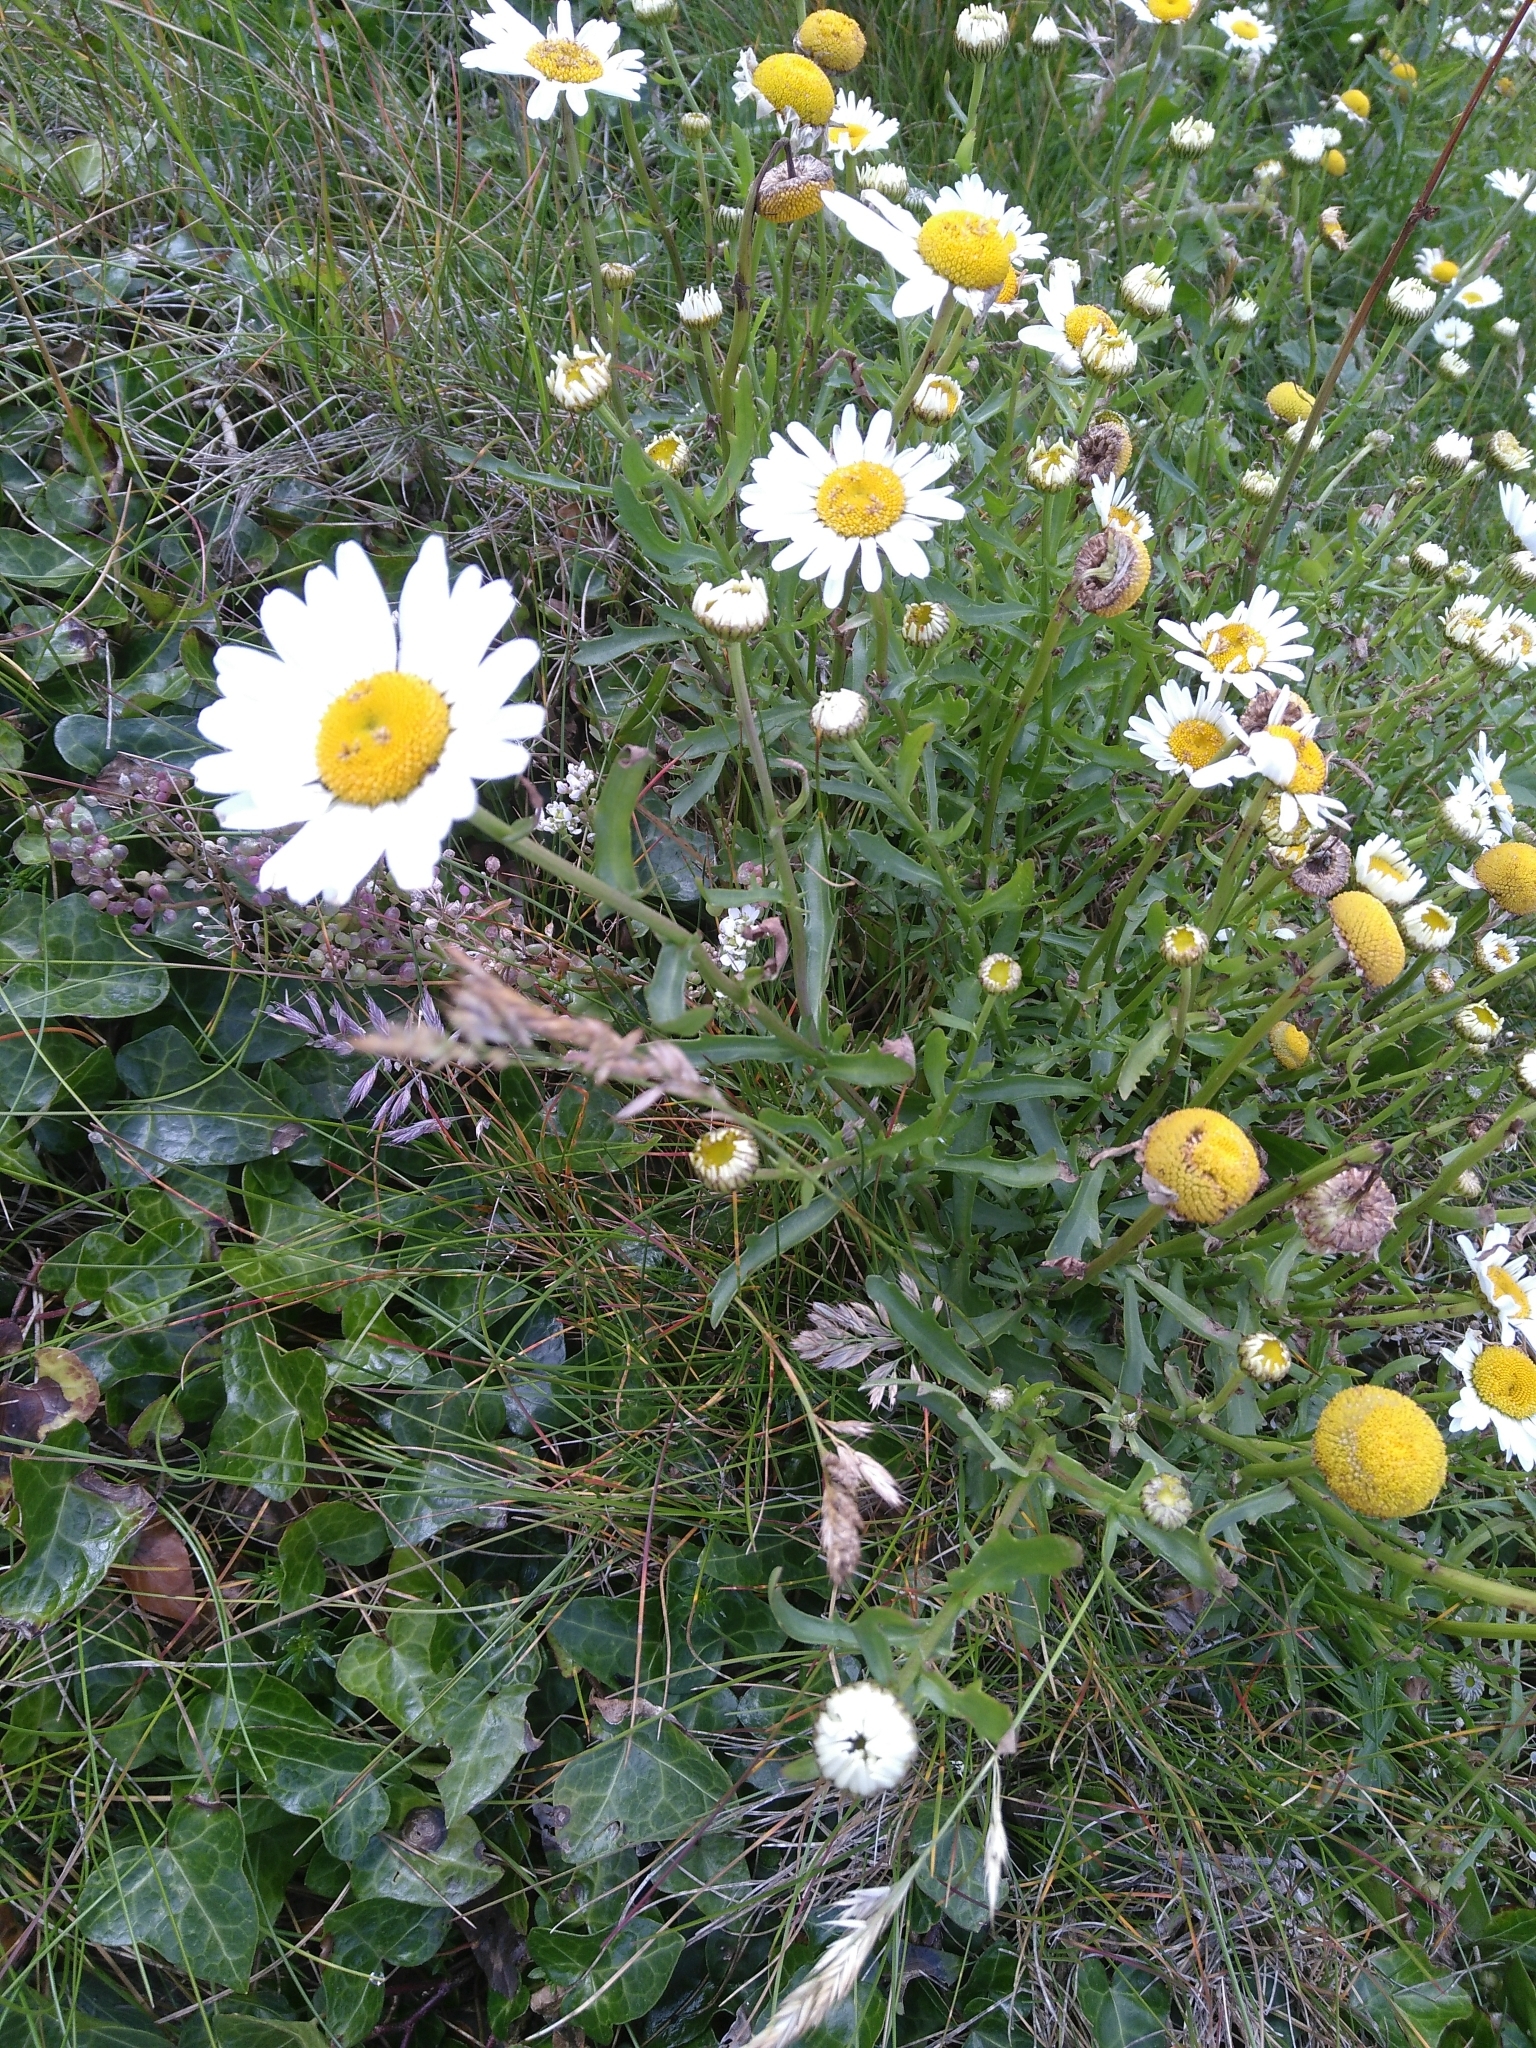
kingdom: Plantae
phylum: Tracheophyta
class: Magnoliopsida
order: Asterales
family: Asteraceae
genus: Leucanthemum
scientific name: Leucanthemum vulgare
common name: Oxeye daisy
